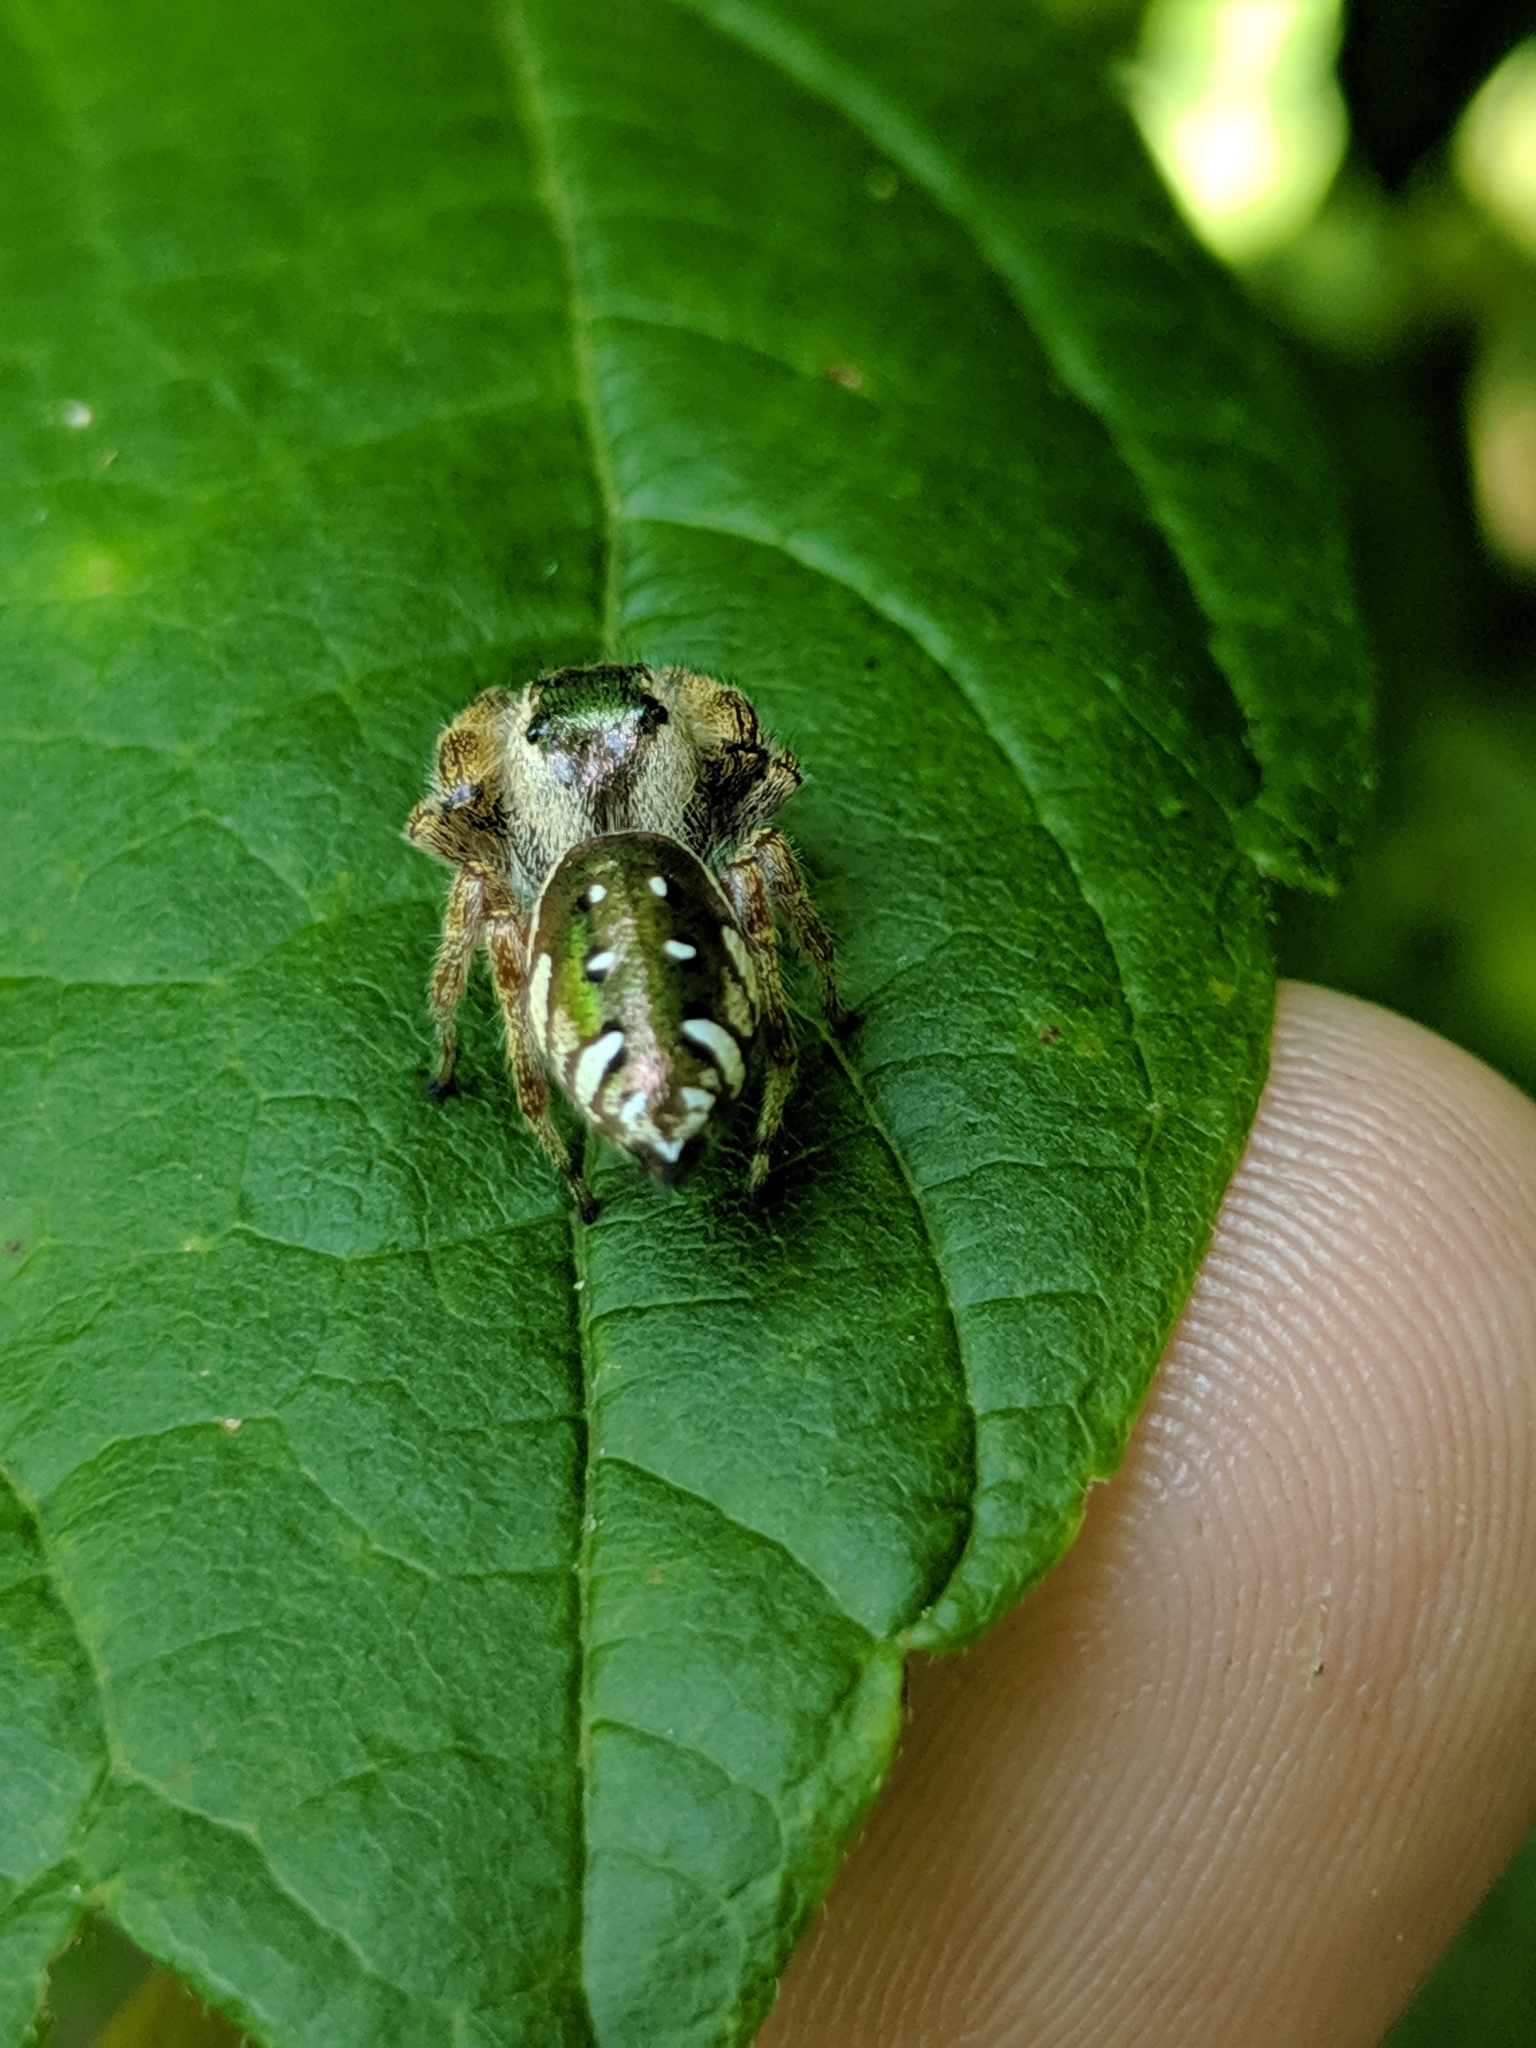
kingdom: Animalia
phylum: Arthropoda
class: Arachnida
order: Araneae
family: Salticidae
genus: Paraphidippus
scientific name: Paraphidippus aurantius
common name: Jumping spiders
